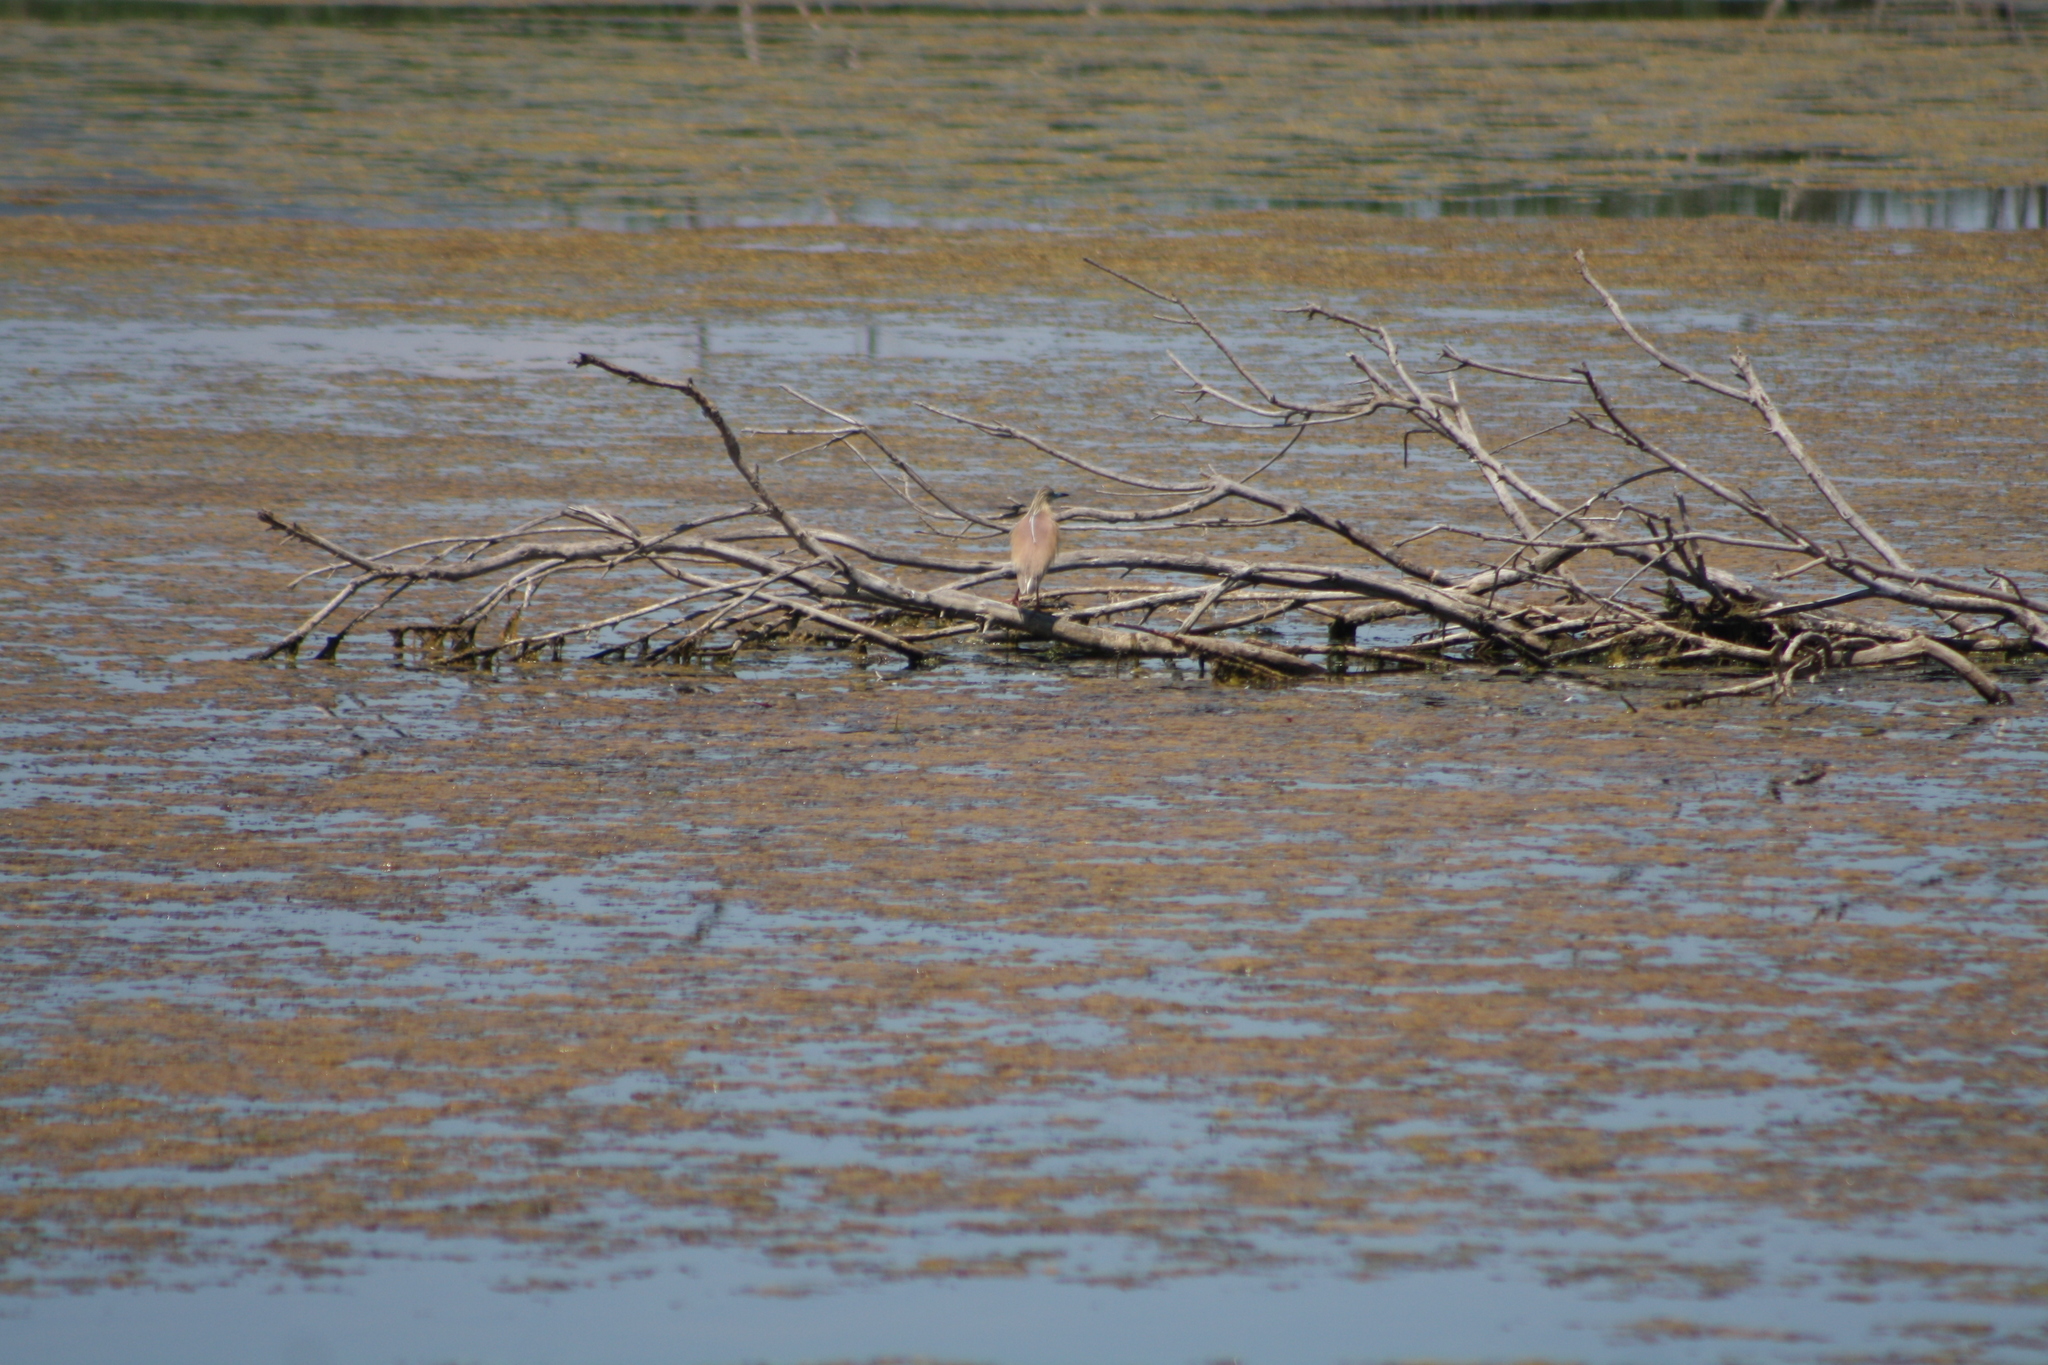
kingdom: Animalia
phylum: Chordata
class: Aves
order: Pelecaniformes
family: Ardeidae
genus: Ardeola
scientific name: Ardeola ralloides
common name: Squacco heron
